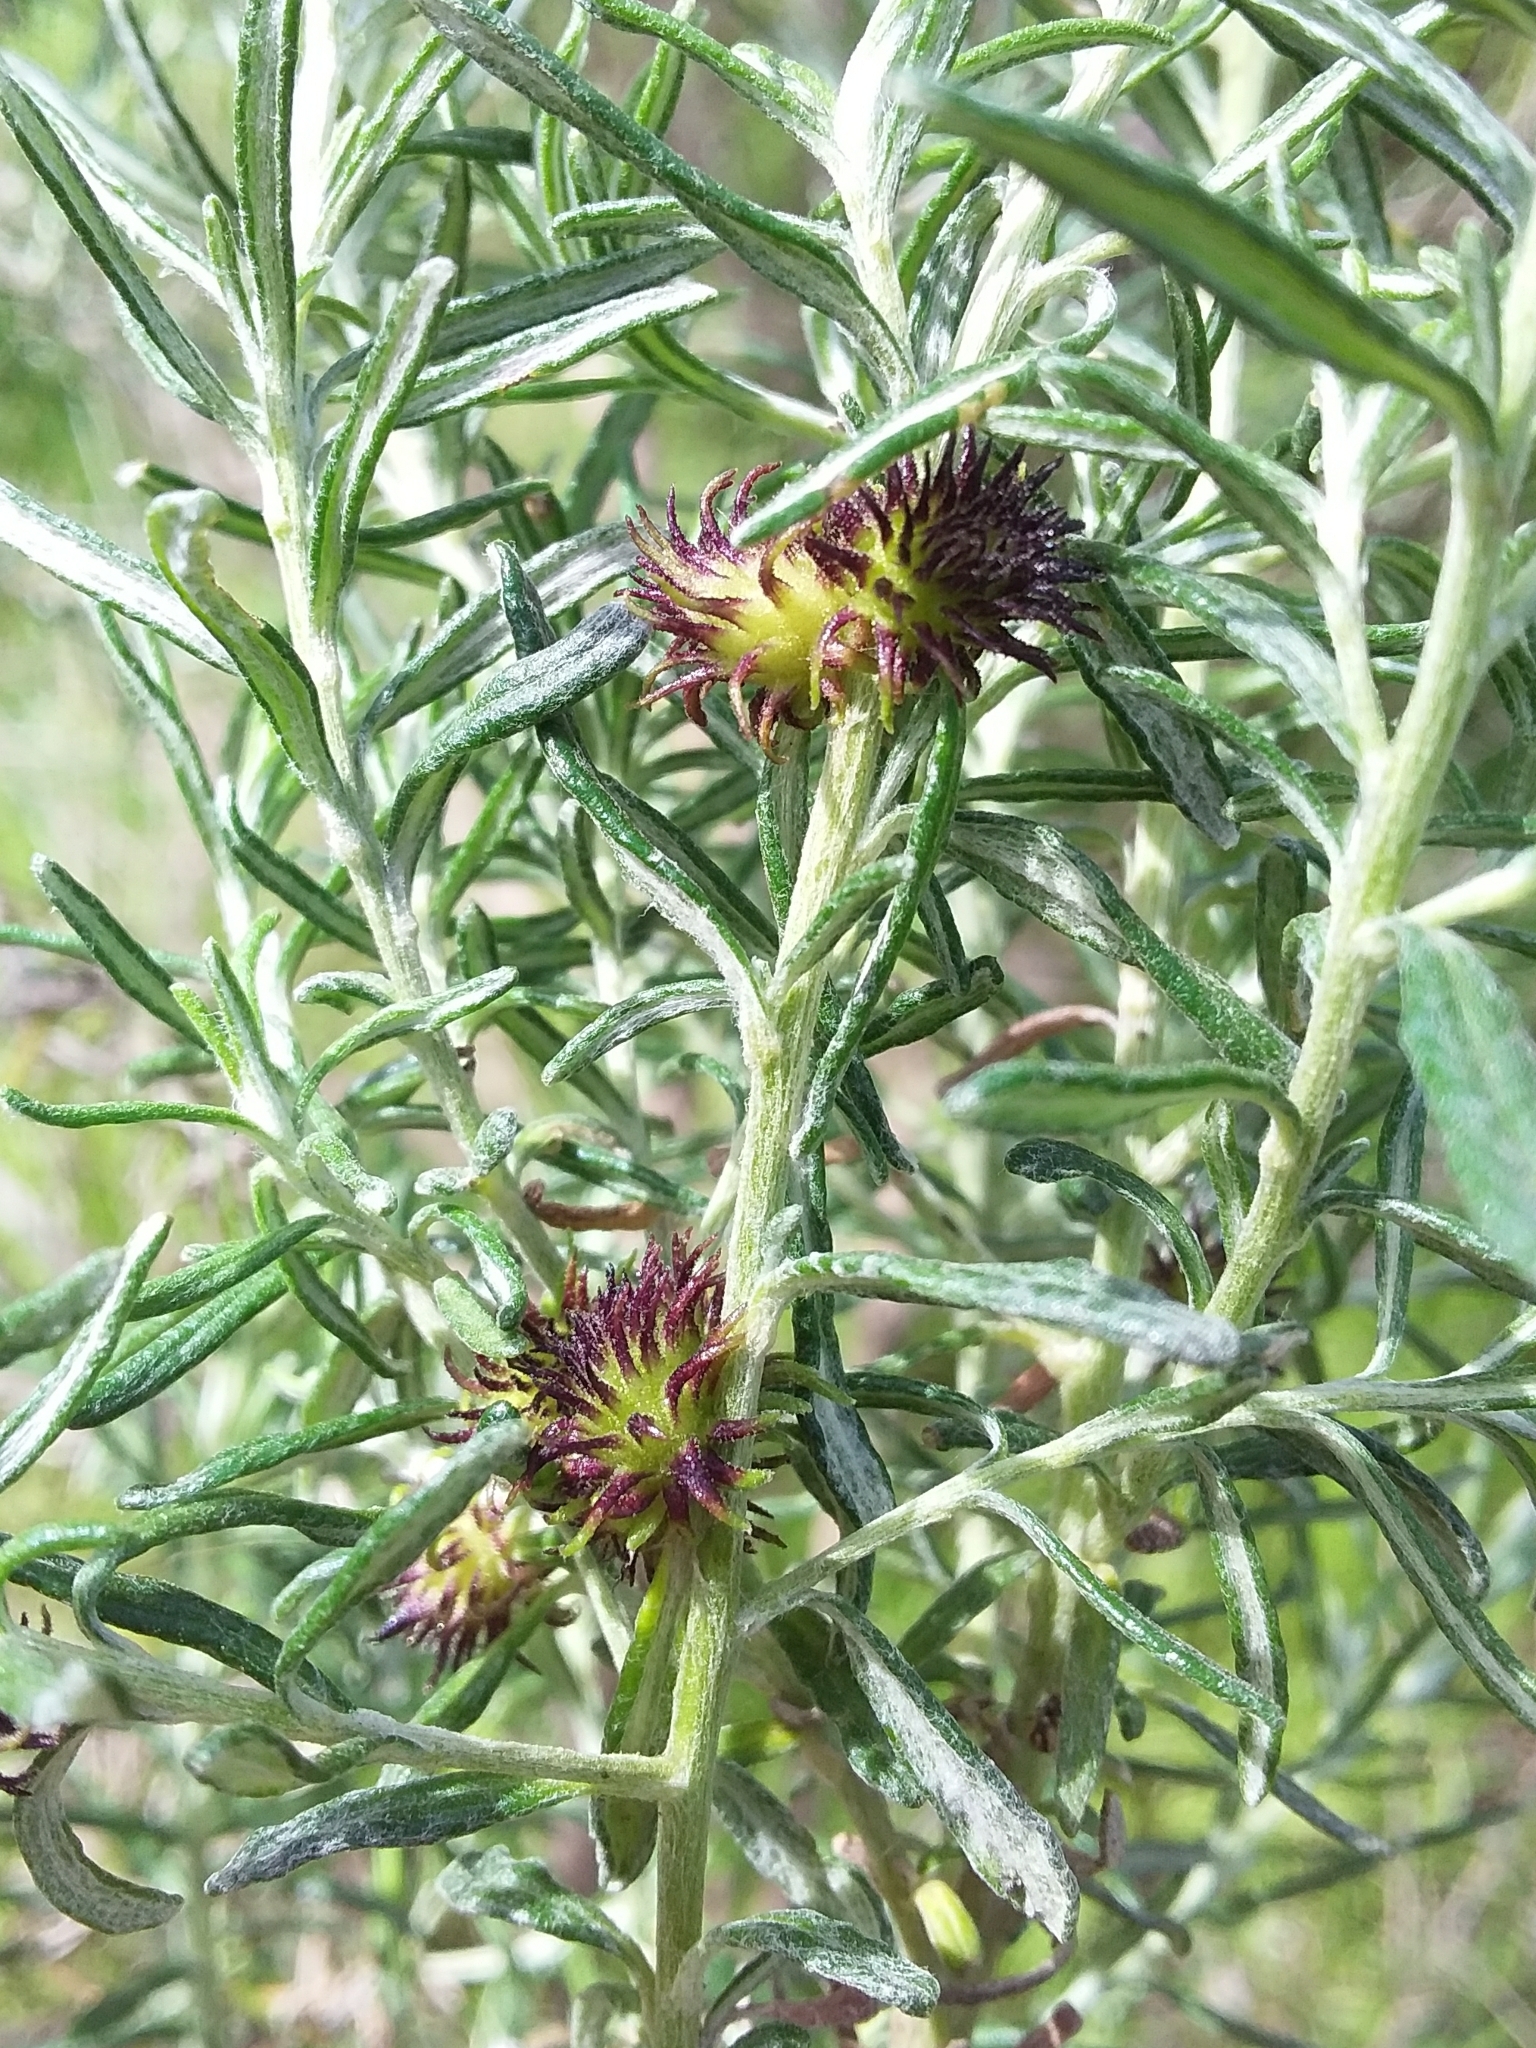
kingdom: Animalia
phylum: Arthropoda
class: Insecta
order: Diptera
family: Cecidomyiidae
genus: Trigonomyia
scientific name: Trigonomyia ananas
